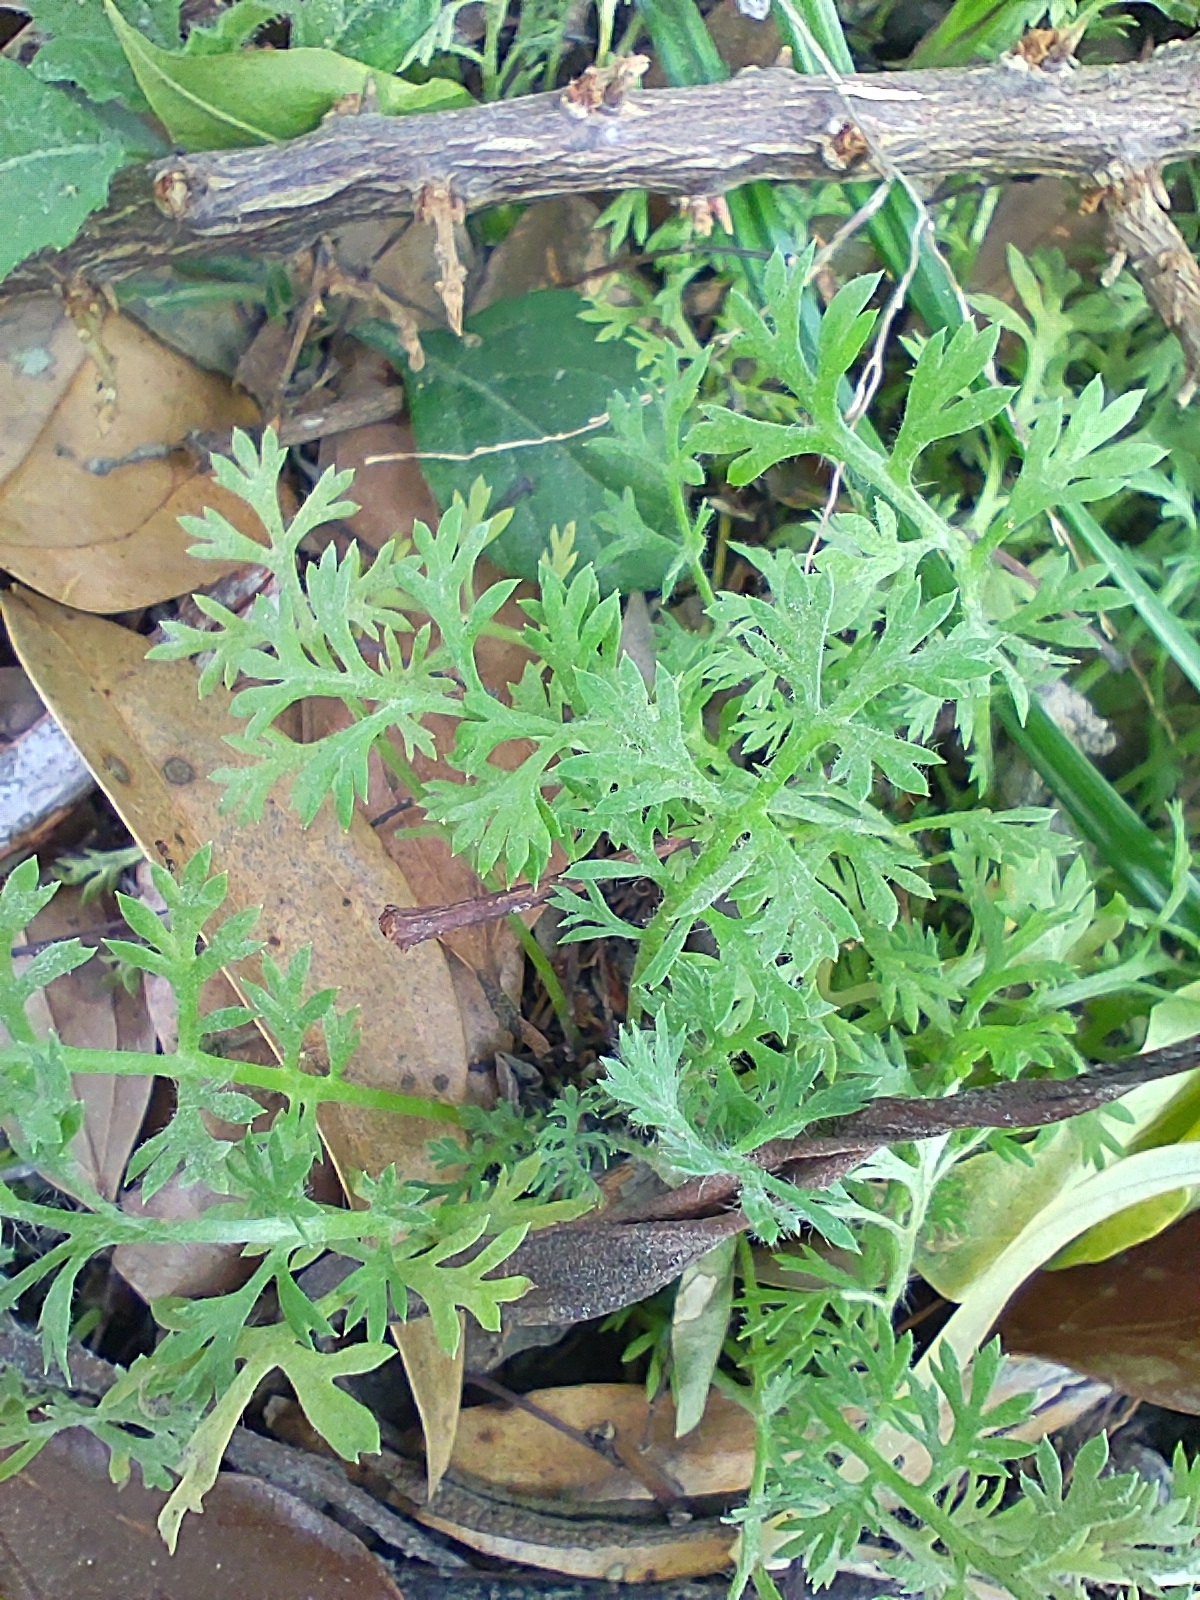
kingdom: Plantae
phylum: Tracheophyta
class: Magnoliopsida
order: Asterales
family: Asteraceae
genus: Soliva
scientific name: Soliva anthemifolia
